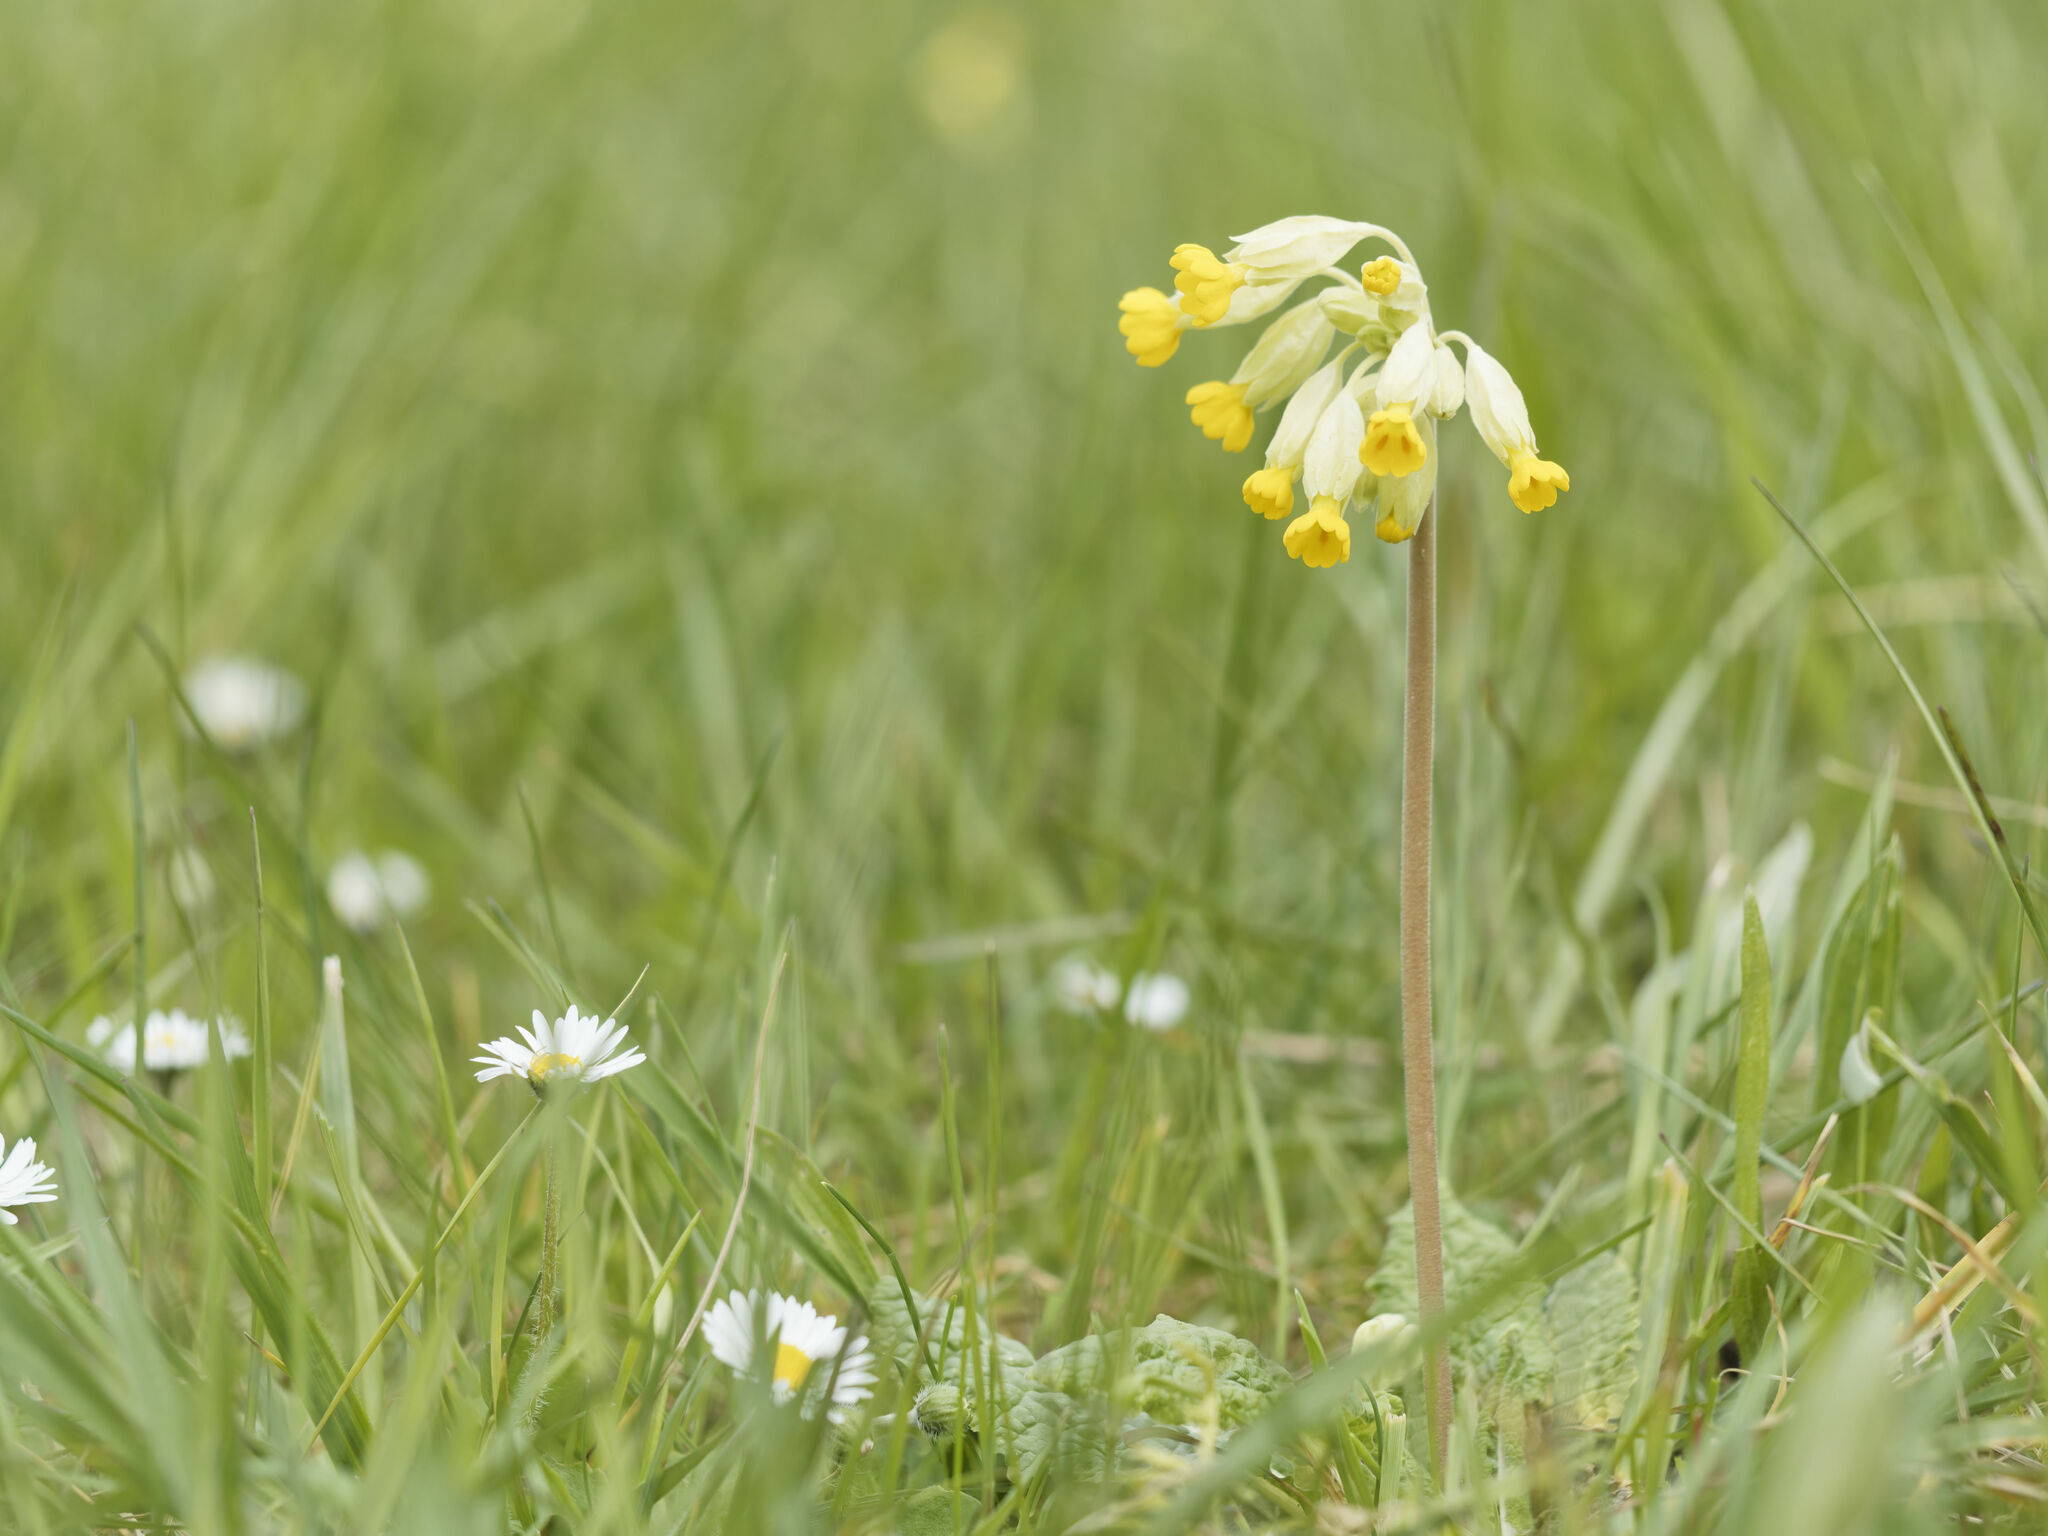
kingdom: Plantae
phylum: Tracheophyta
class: Magnoliopsida
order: Ericales
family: Primulaceae
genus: Primula
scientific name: Primula veris
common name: Cowslip
